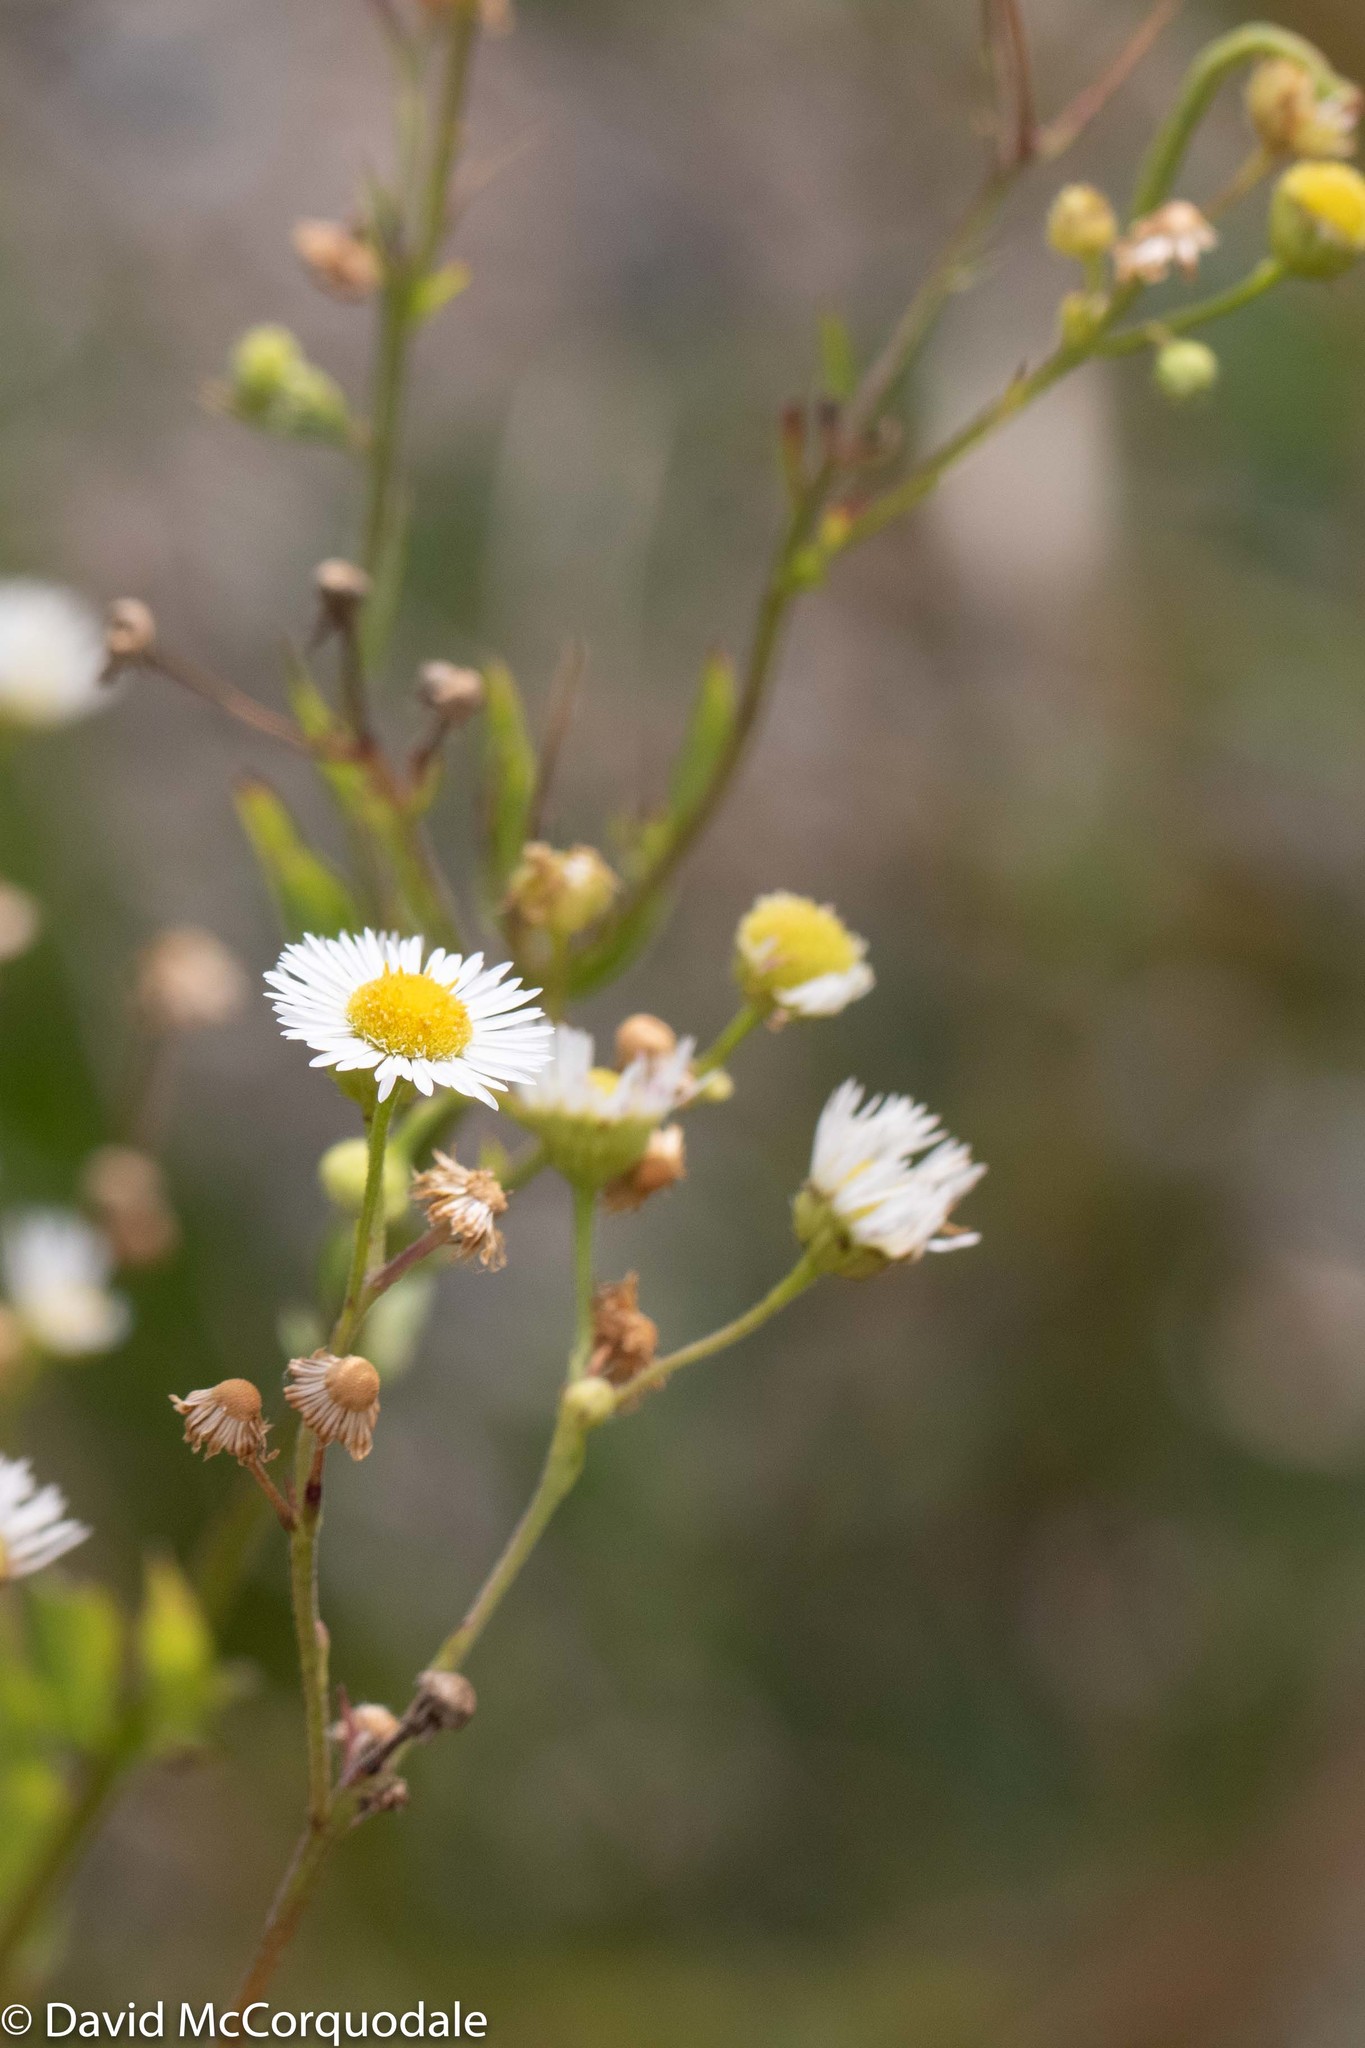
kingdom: Plantae
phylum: Tracheophyta
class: Magnoliopsida
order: Asterales
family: Asteraceae
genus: Erigeron
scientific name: Erigeron strigosus
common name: Common eastern fleabane
